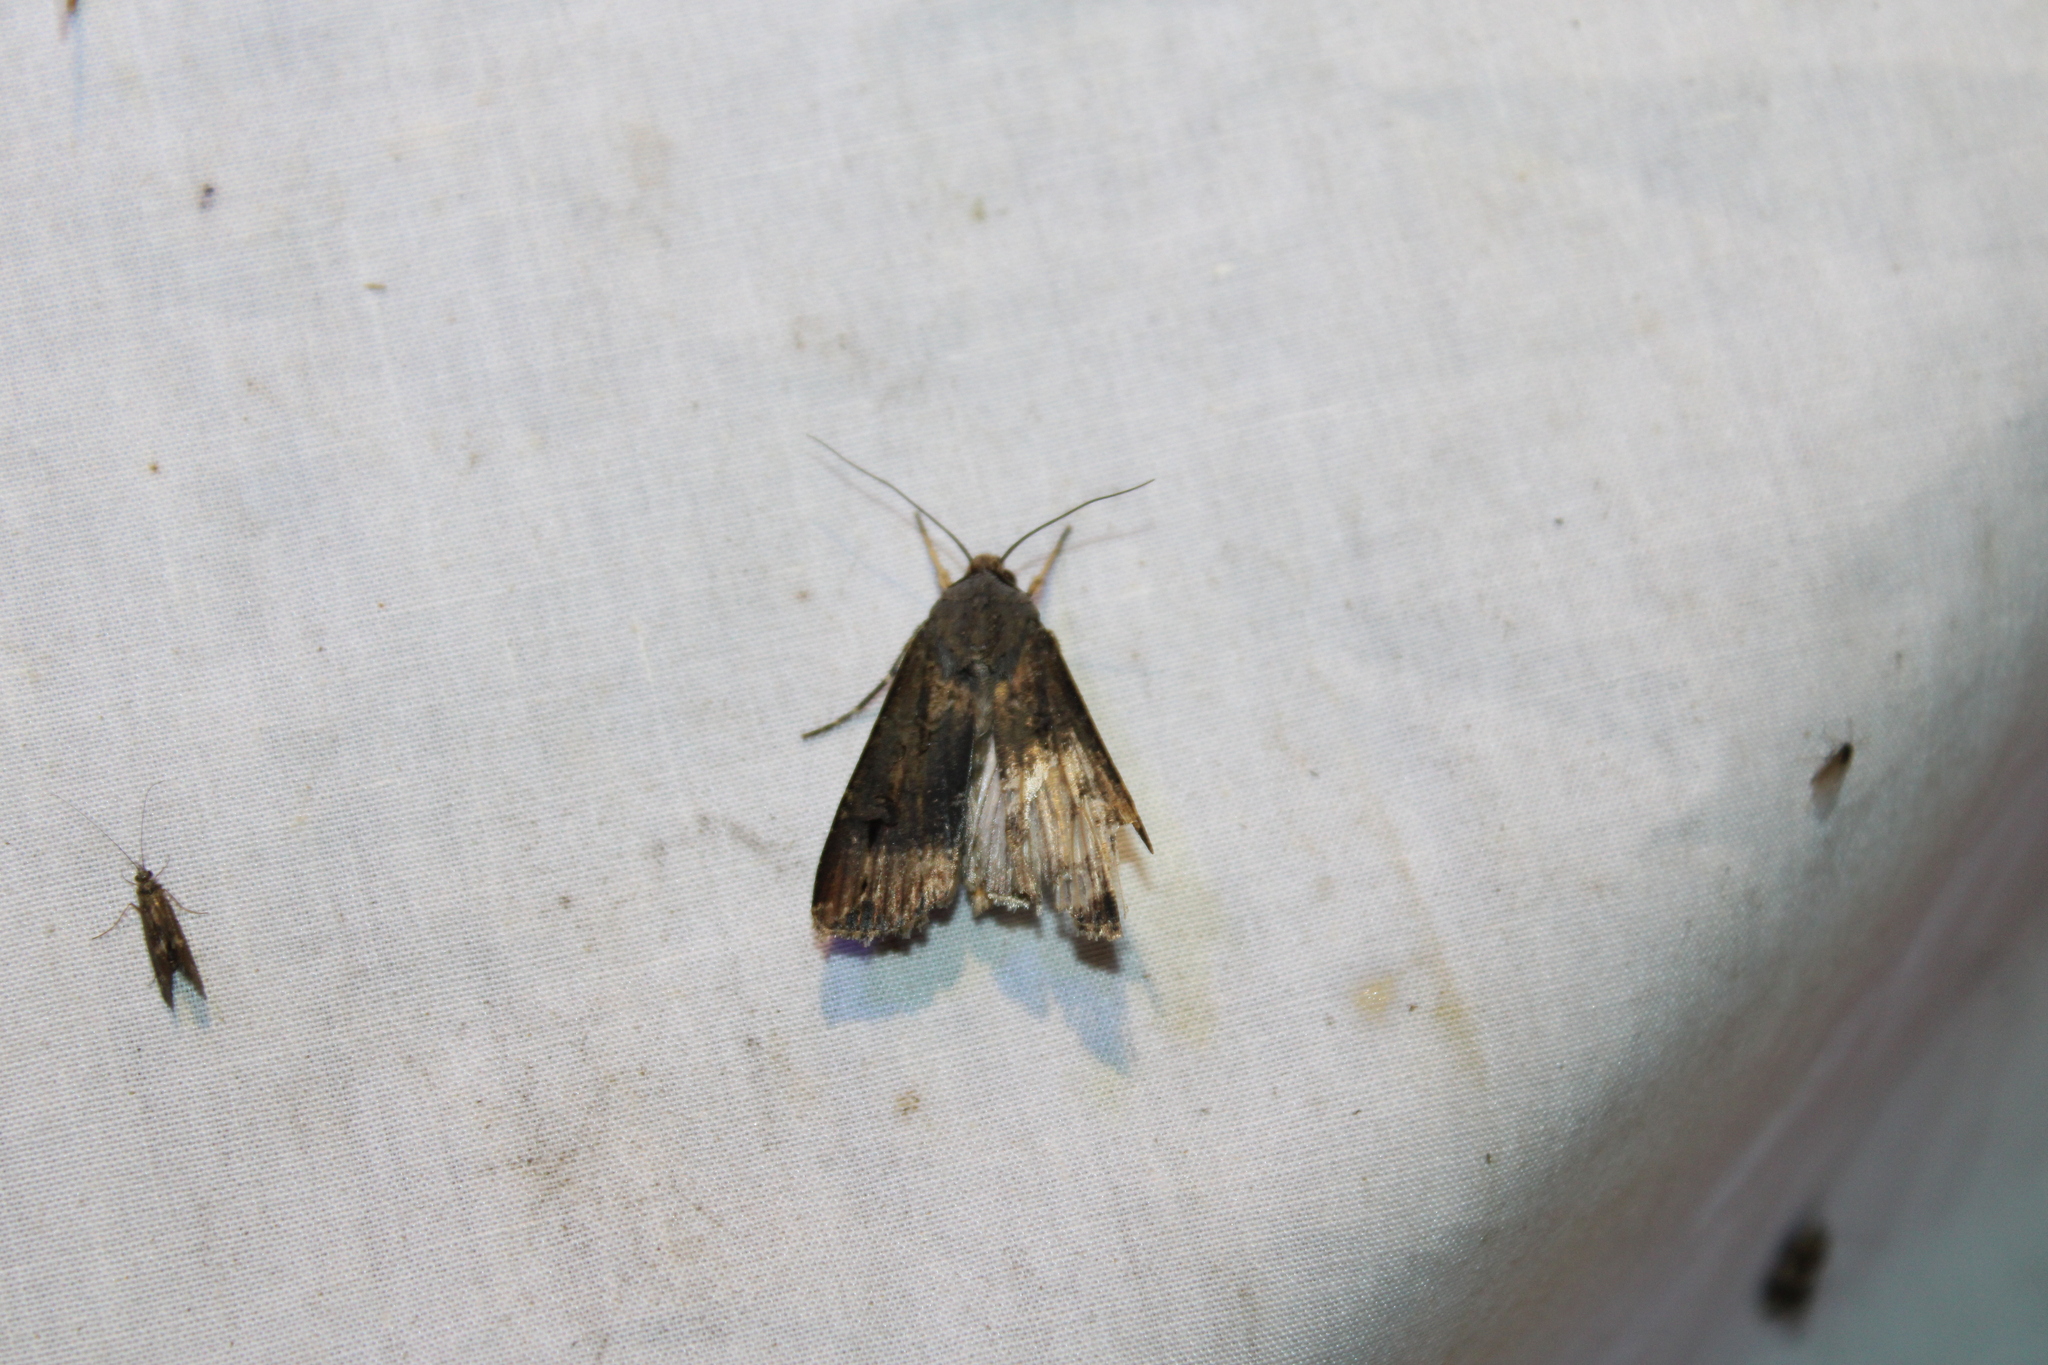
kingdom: Animalia
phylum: Arthropoda
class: Insecta
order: Lepidoptera
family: Noctuidae
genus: Agrotis
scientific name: Agrotis ipsilon
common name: Dark sword-grass
